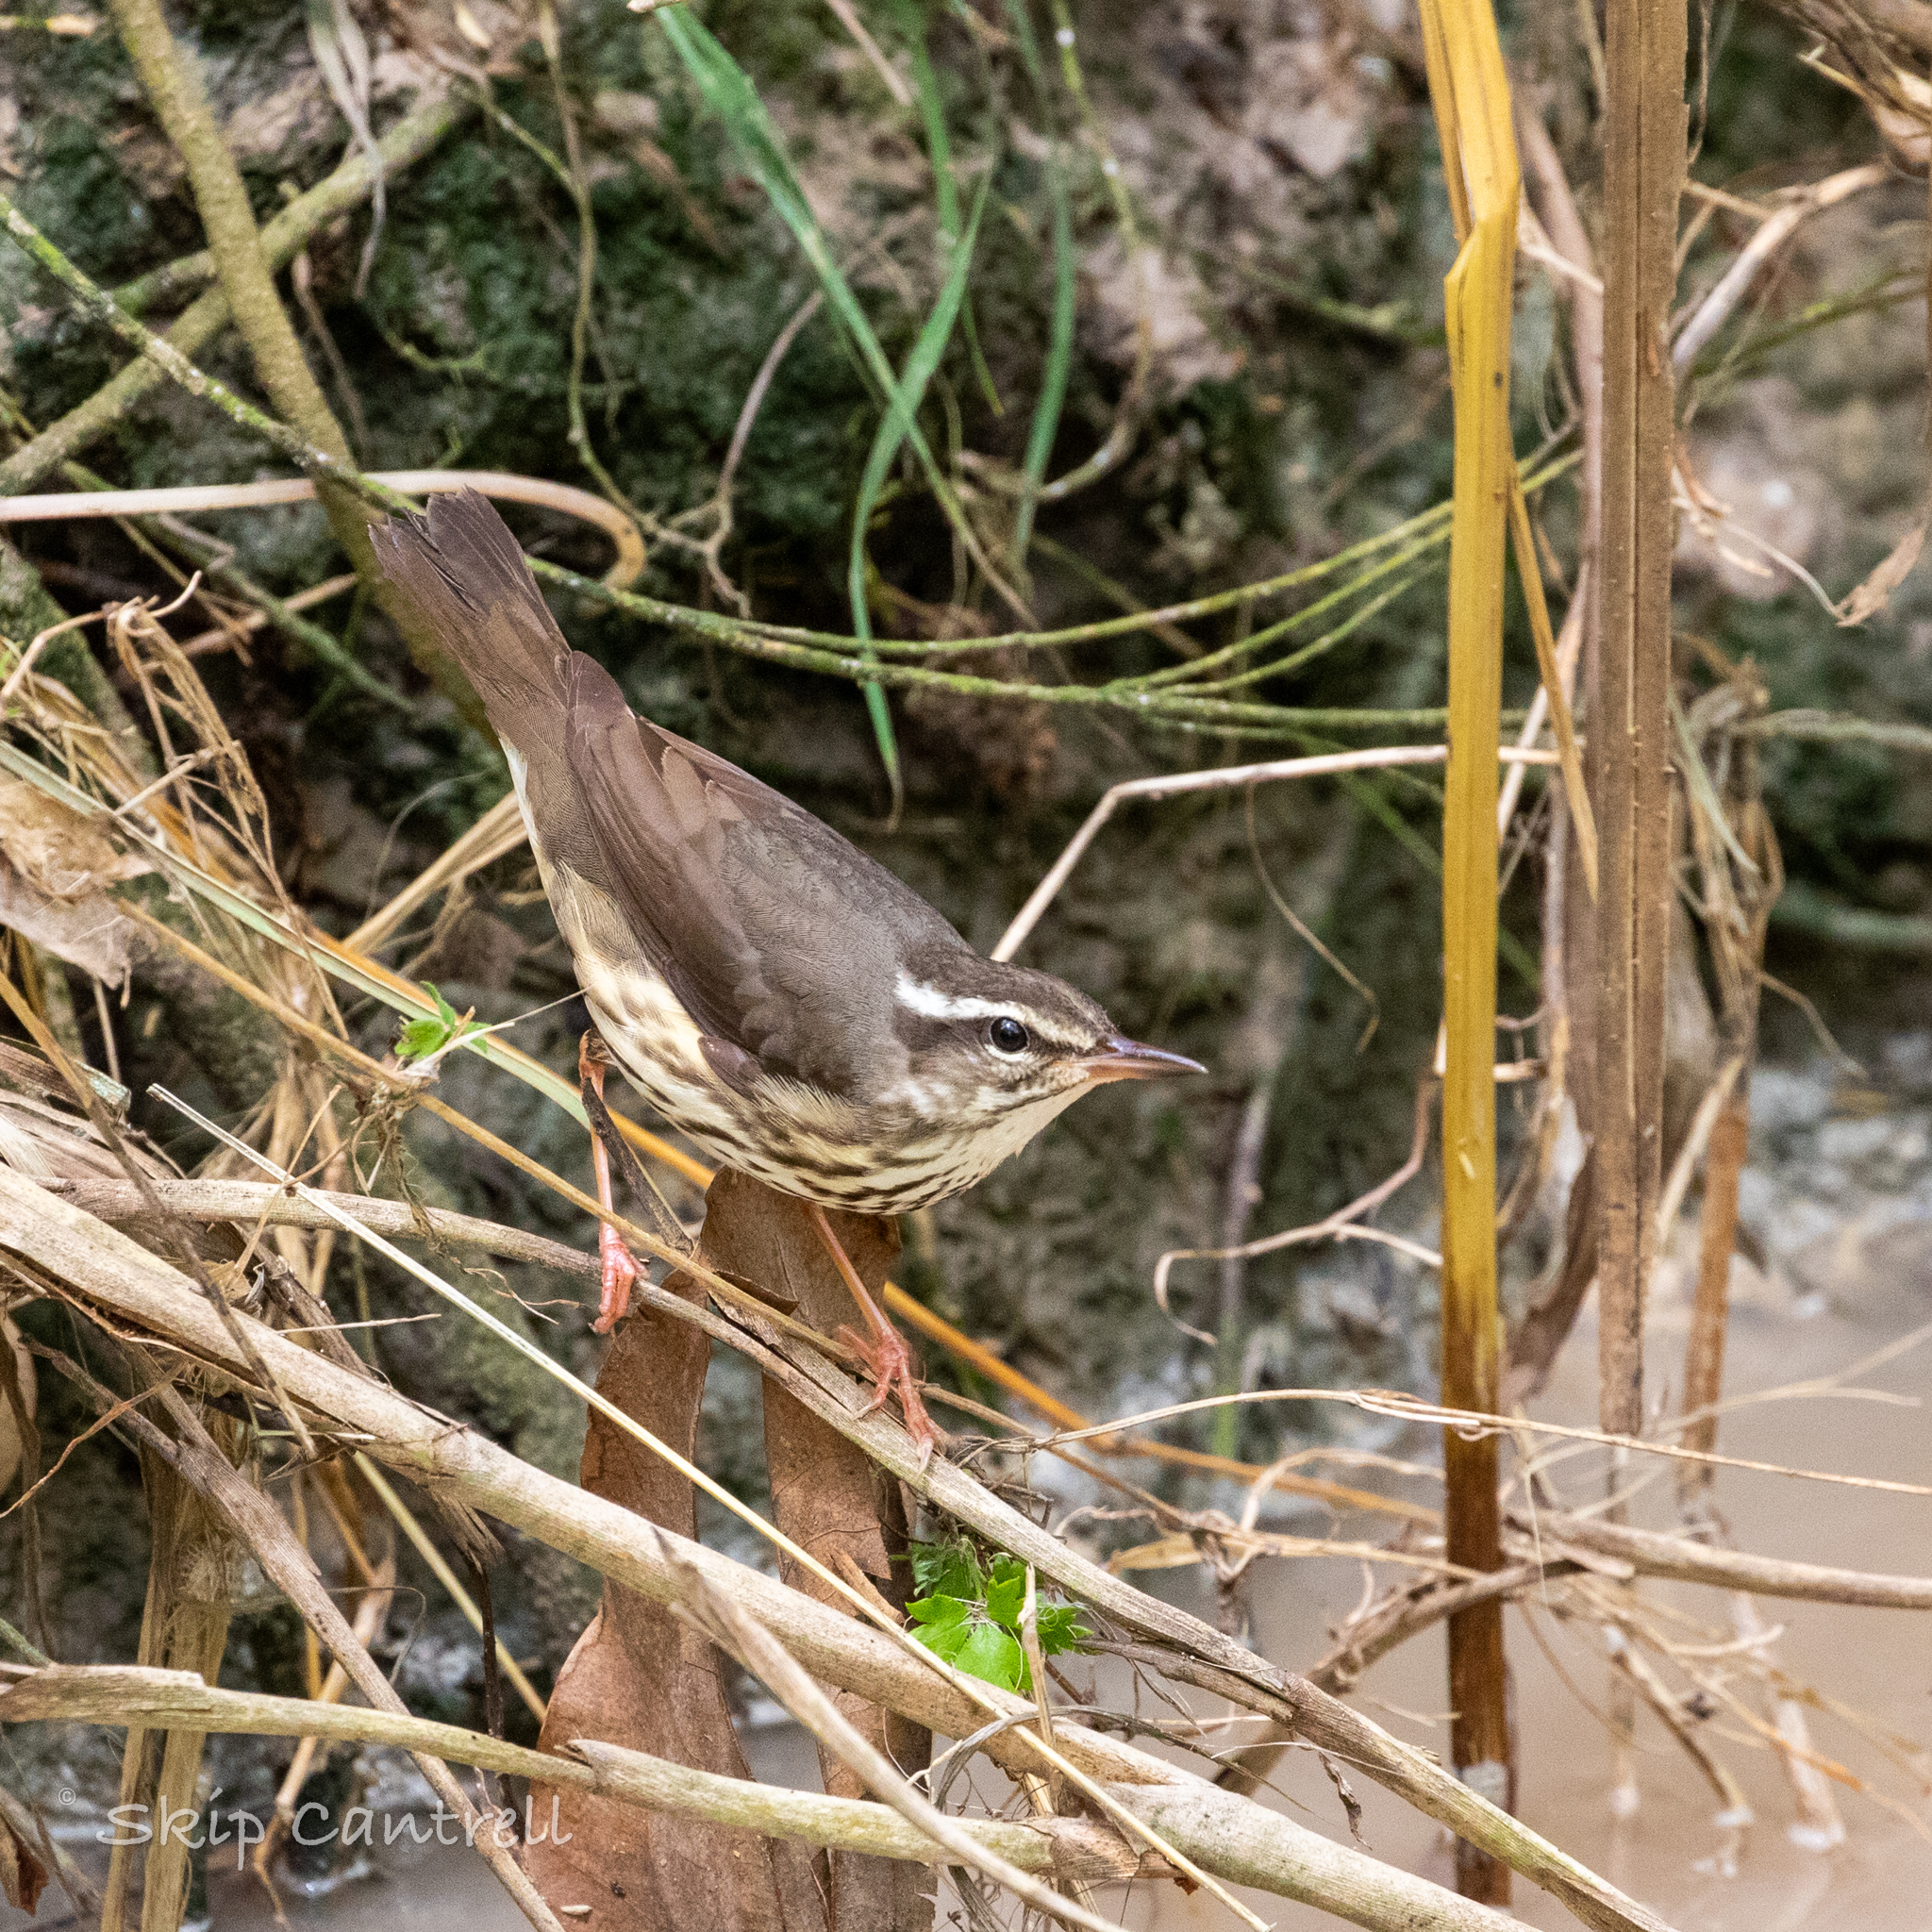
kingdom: Animalia
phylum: Chordata
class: Aves
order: Passeriformes
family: Parulidae
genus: Parkesia
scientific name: Parkesia motacilla
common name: Louisiana waterthrush
